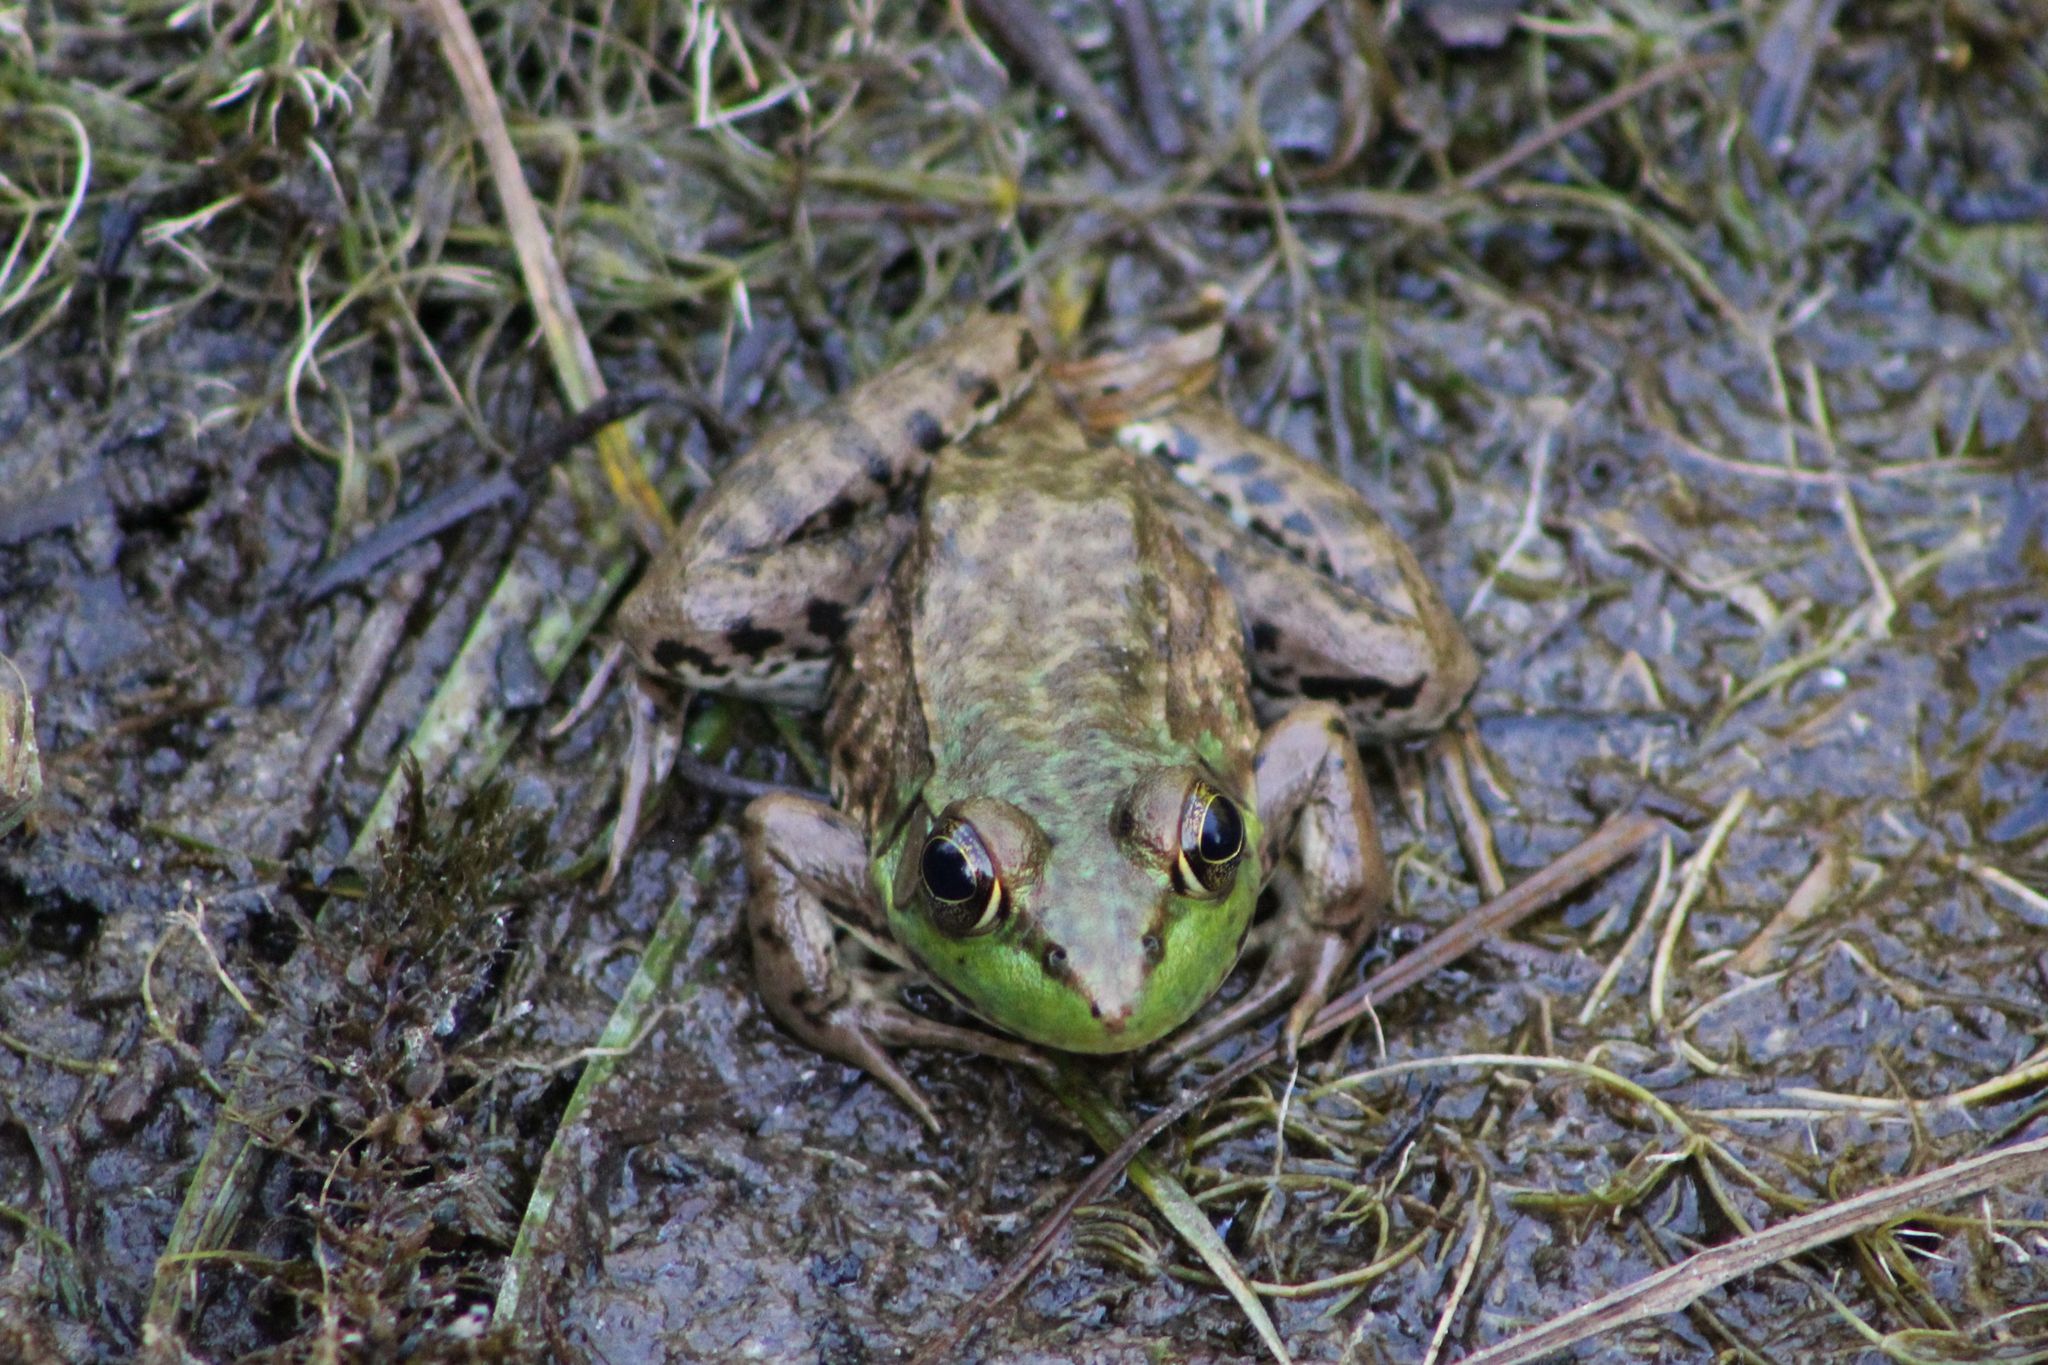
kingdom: Animalia
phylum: Chordata
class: Amphibia
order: Anura
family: Ranidae
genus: Lithobates
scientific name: Lithobates clamitans
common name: Green frog
